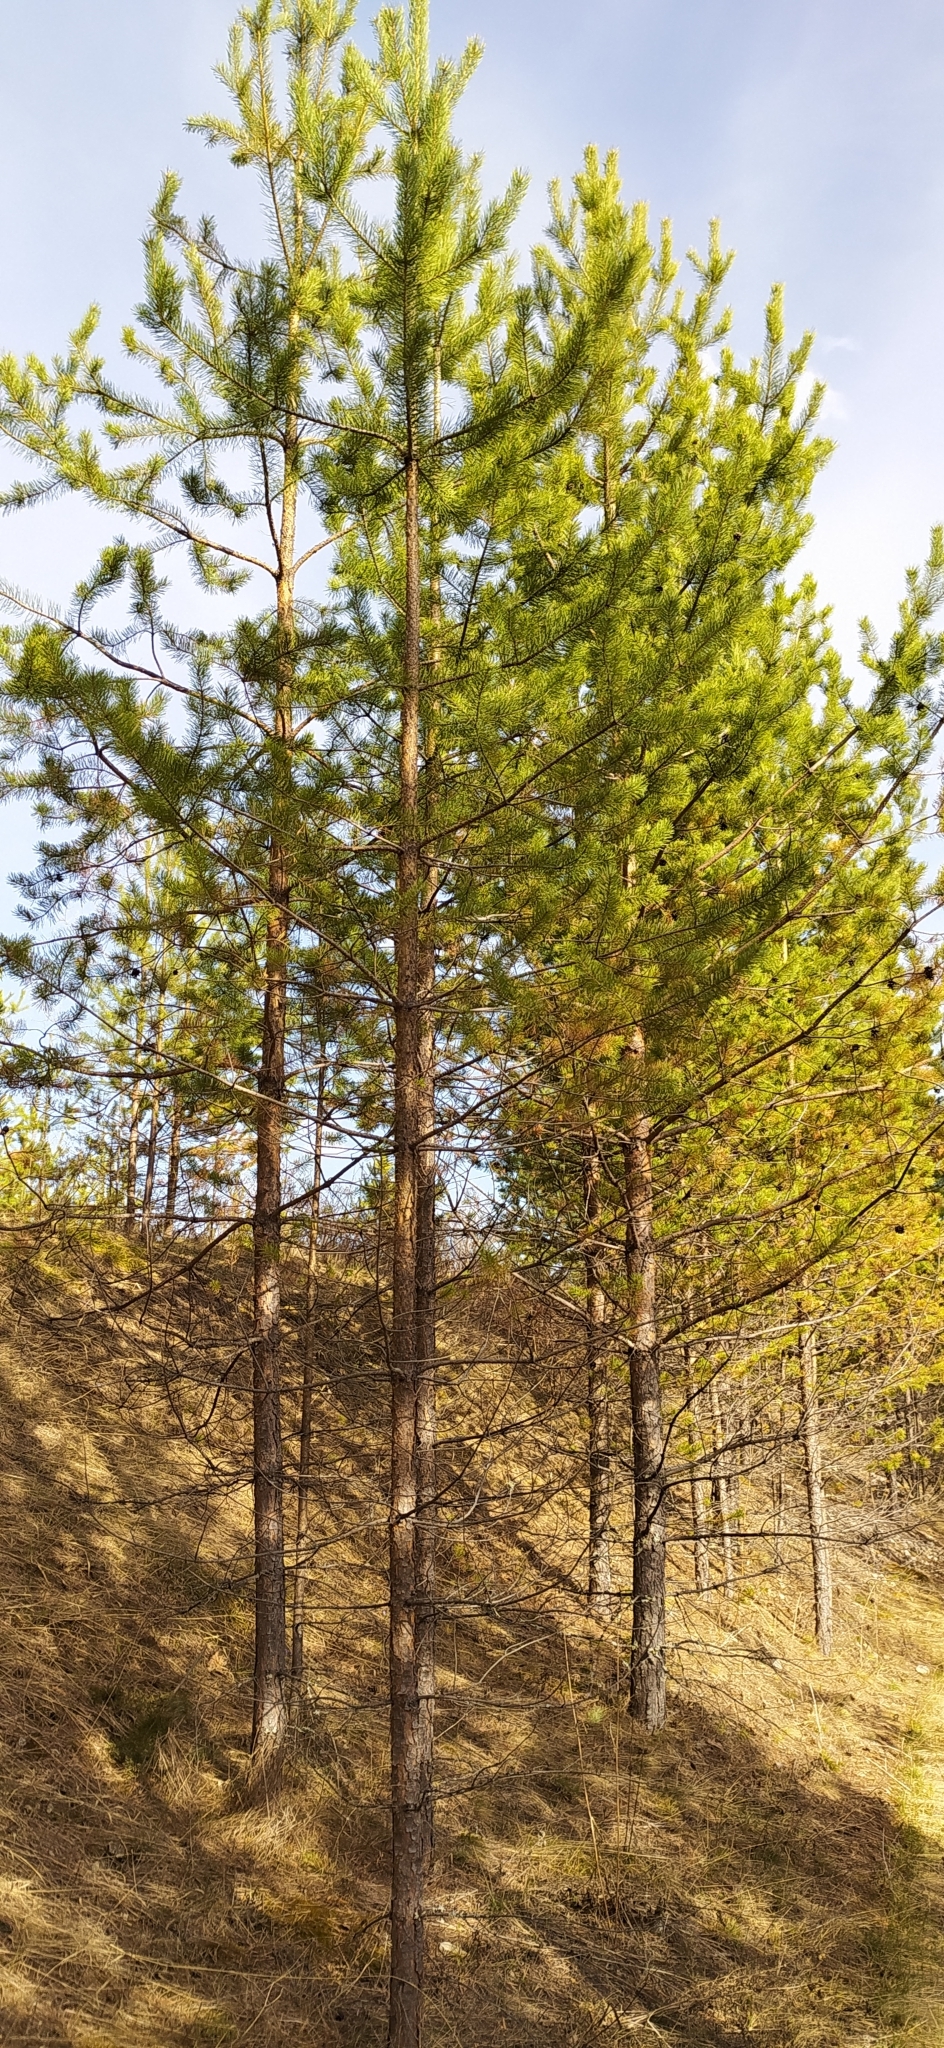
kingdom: Plantae
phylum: Tracheophyta
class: Pinopsida
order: Pinales
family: Pinaceae
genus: Pinus
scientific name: Pinus sylvestris
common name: Scots pine
